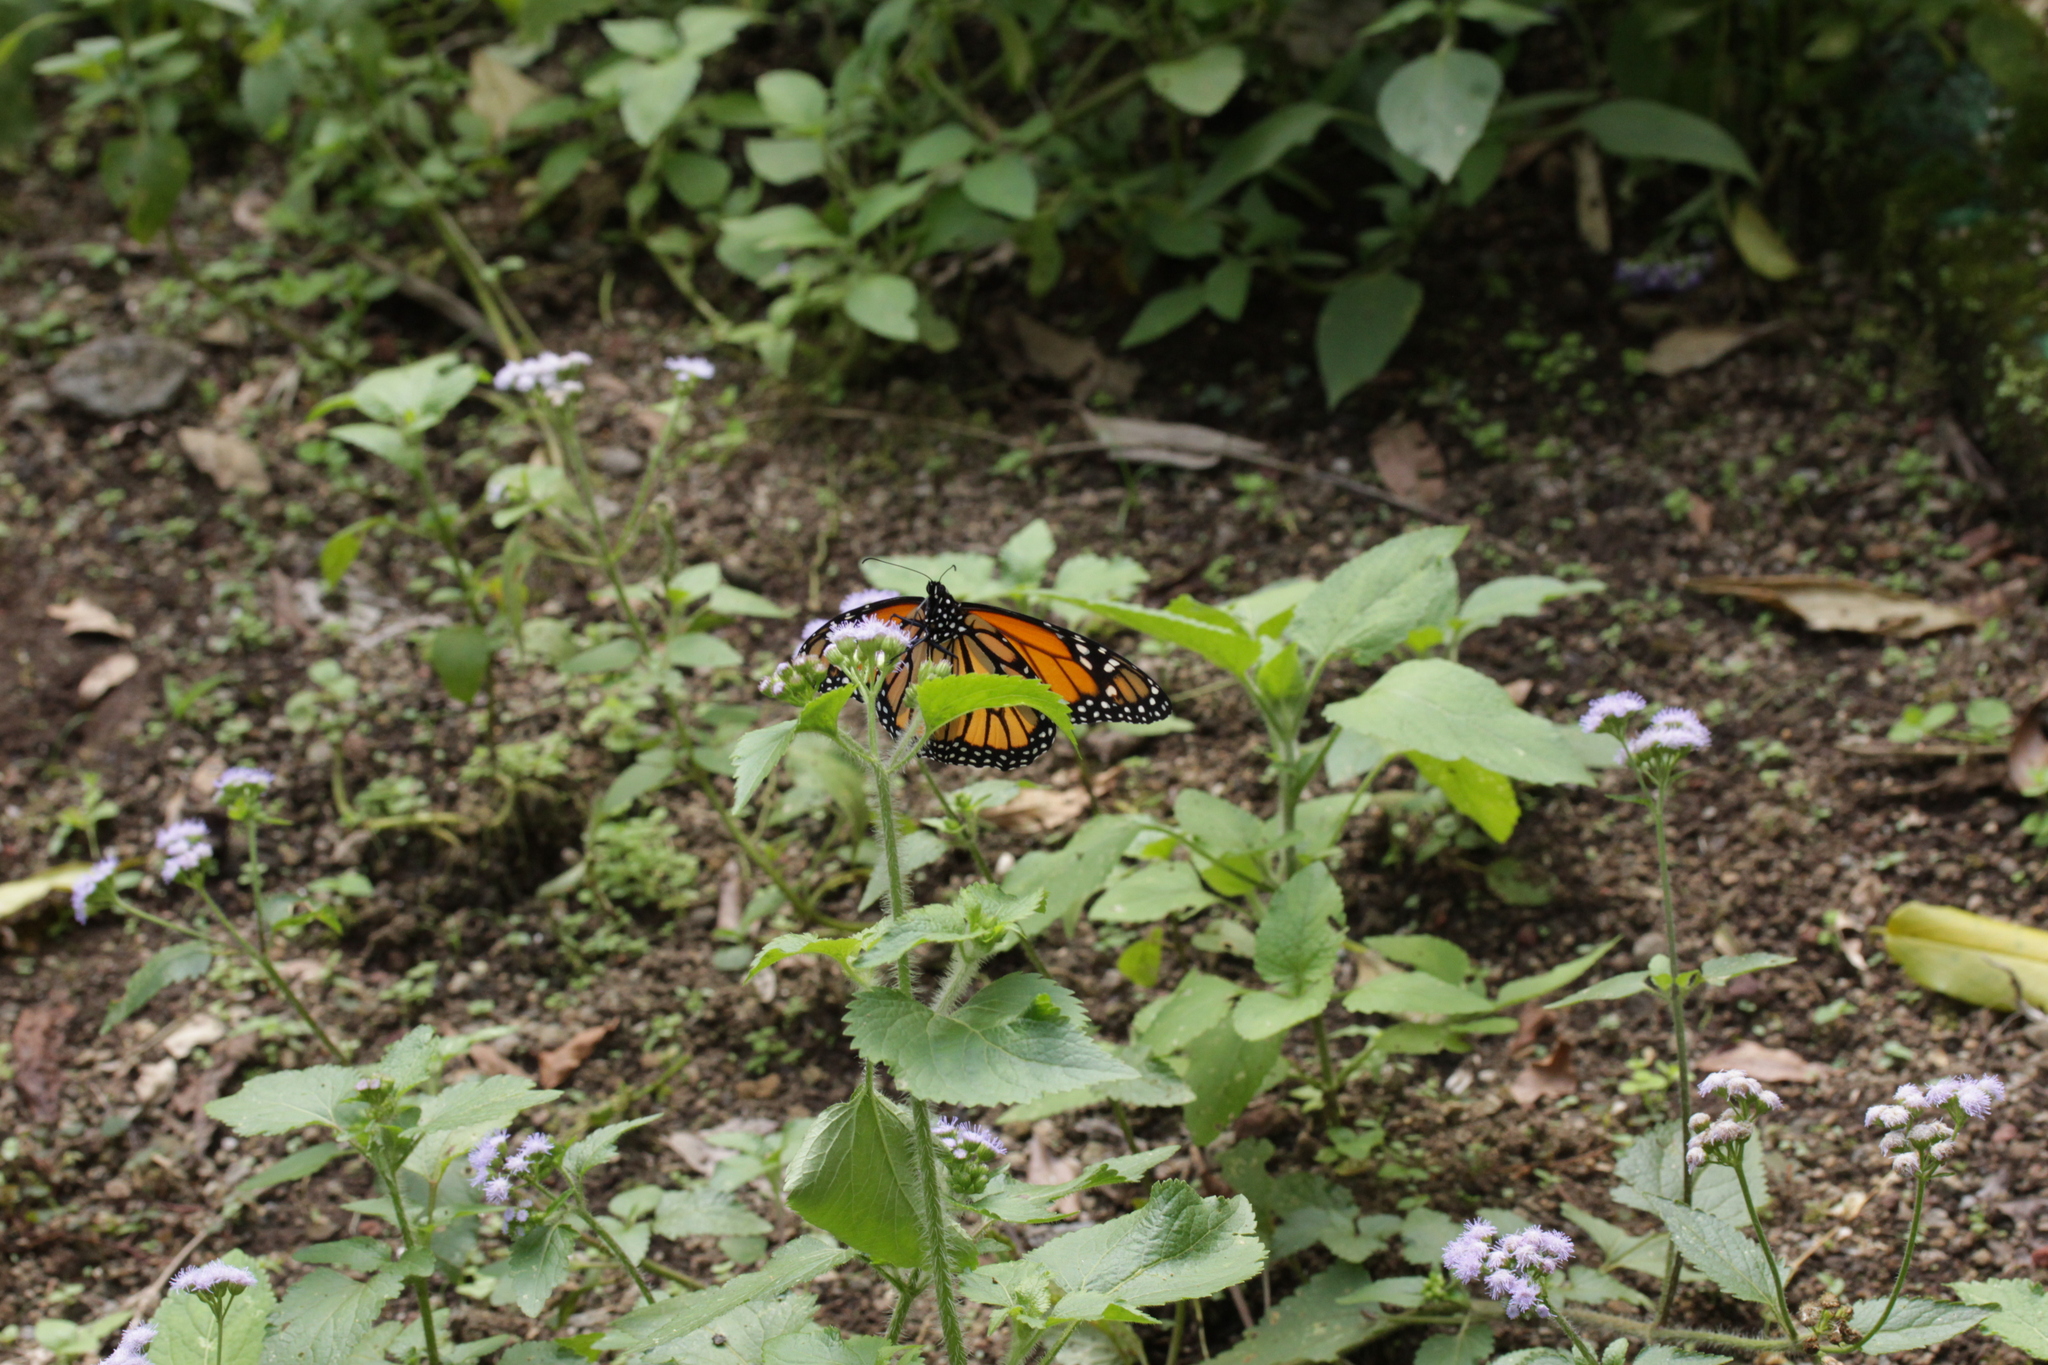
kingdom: Animalia
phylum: Arthropoda
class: Insecta
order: Lepidoptera
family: Nymphalidae
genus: Danaus
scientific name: Danaus plexippus
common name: Monarch
